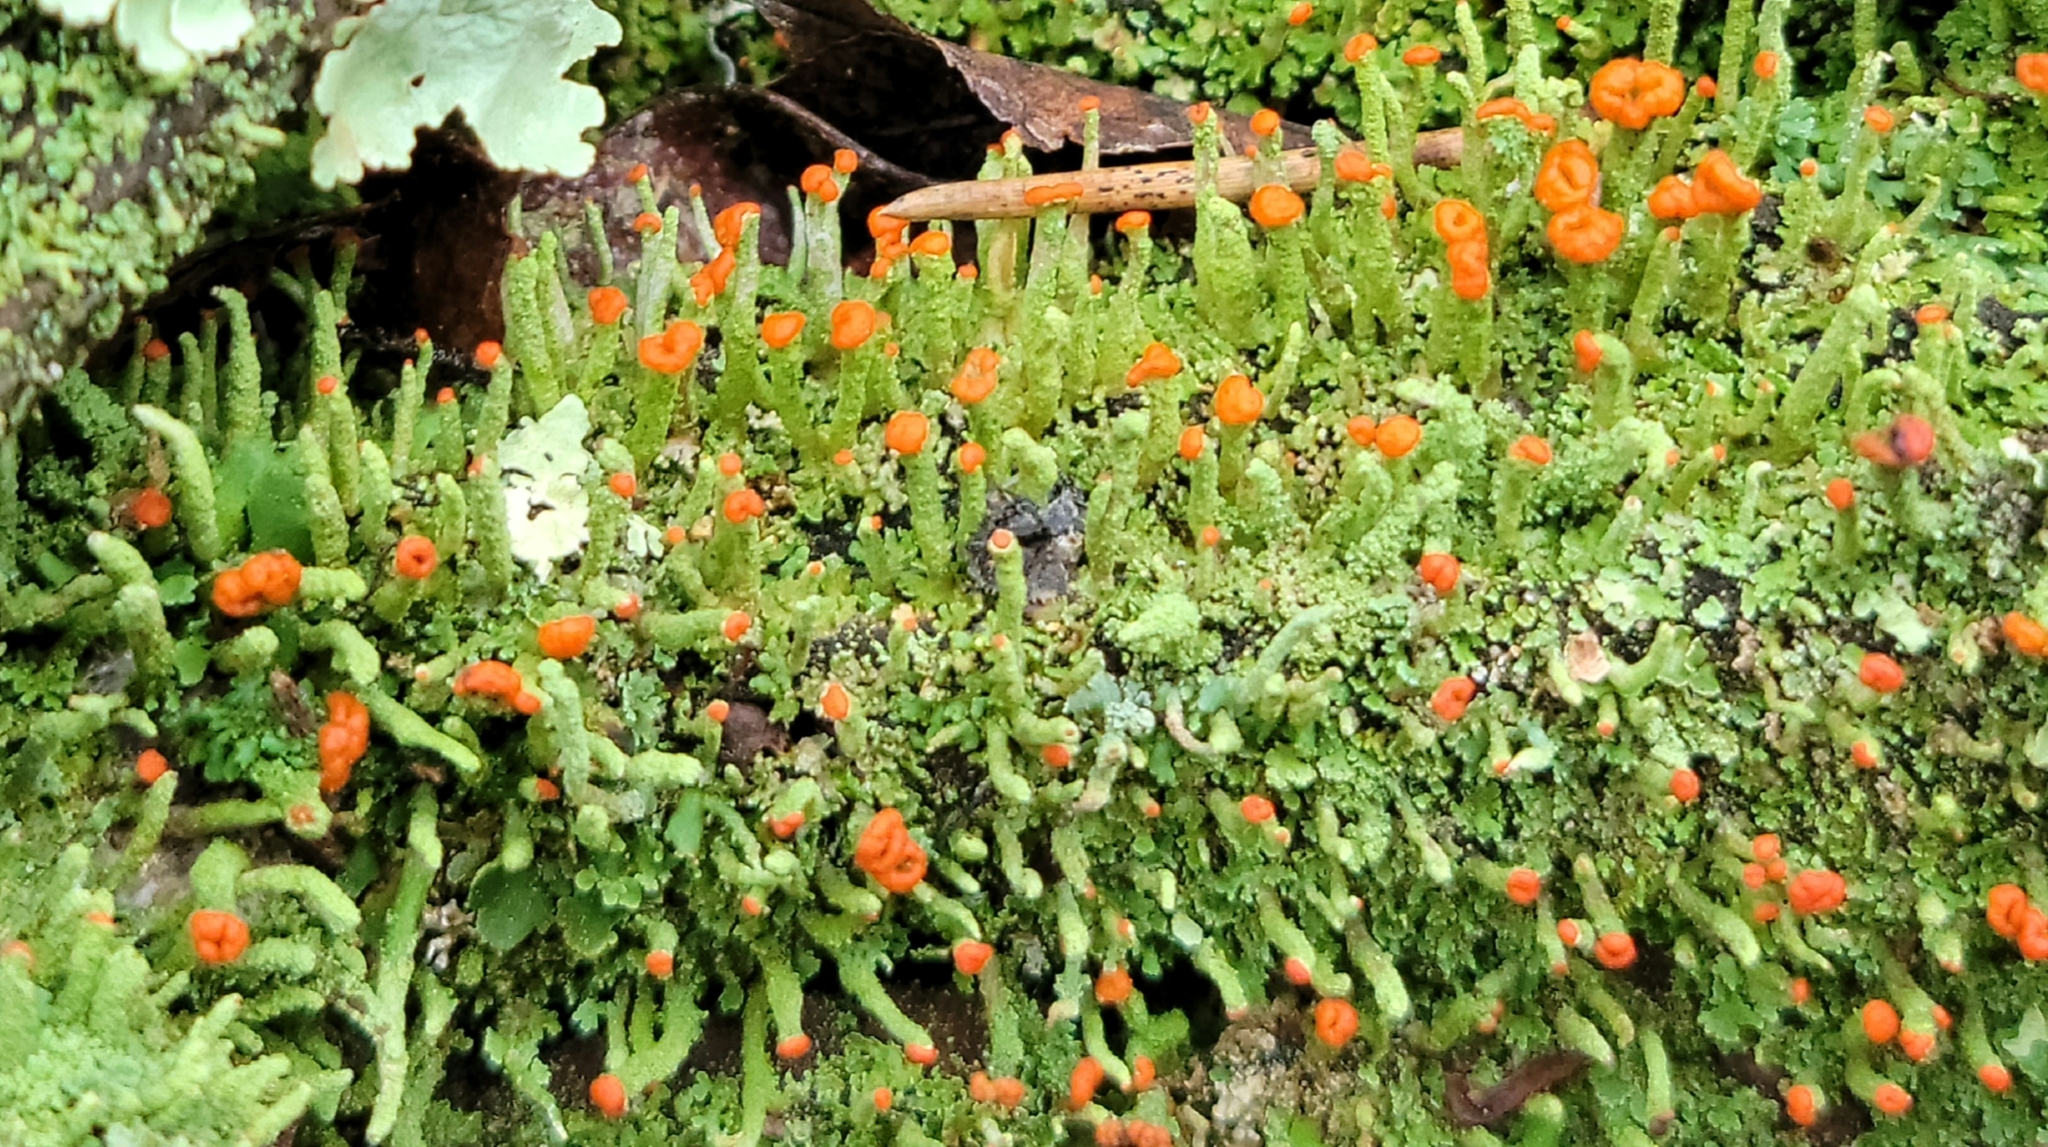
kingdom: Fungi
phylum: Ascomycota
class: Lecanoromycetes
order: Lecanorales
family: Cladoniaceae
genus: Cladonia
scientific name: Cladonia macilenta
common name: Lipstick powderhorn
